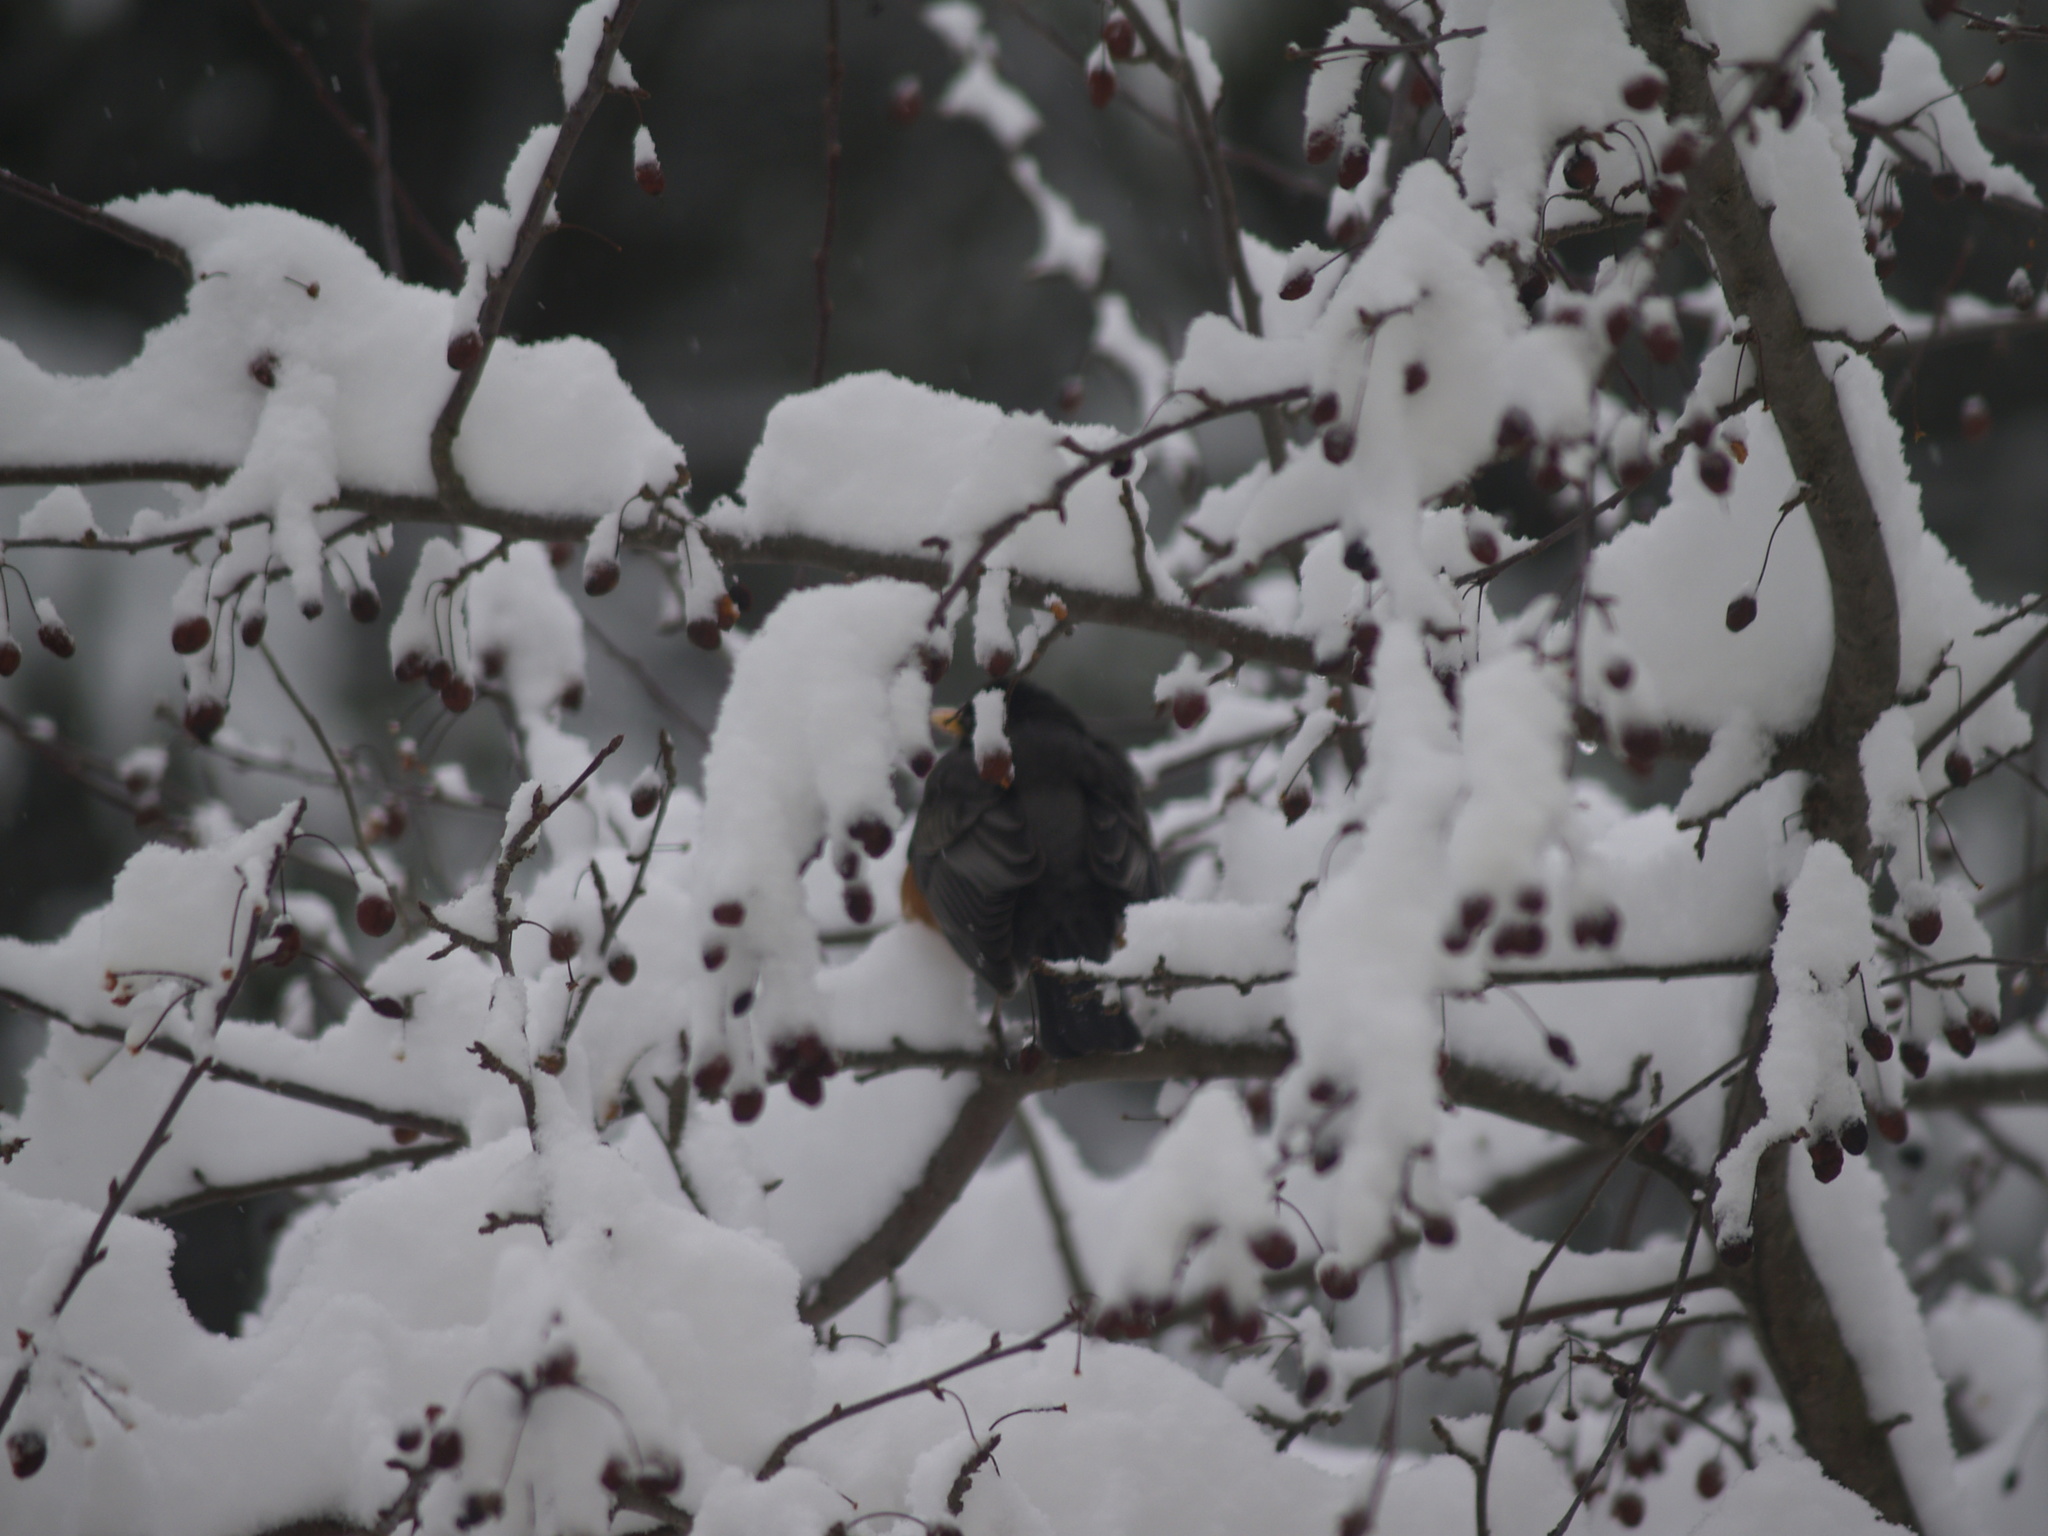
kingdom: Animalia
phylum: Chordata
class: Aves
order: Passeriformes
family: Turdidae
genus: Turdus
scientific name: Turdus migratorius
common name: American robin
